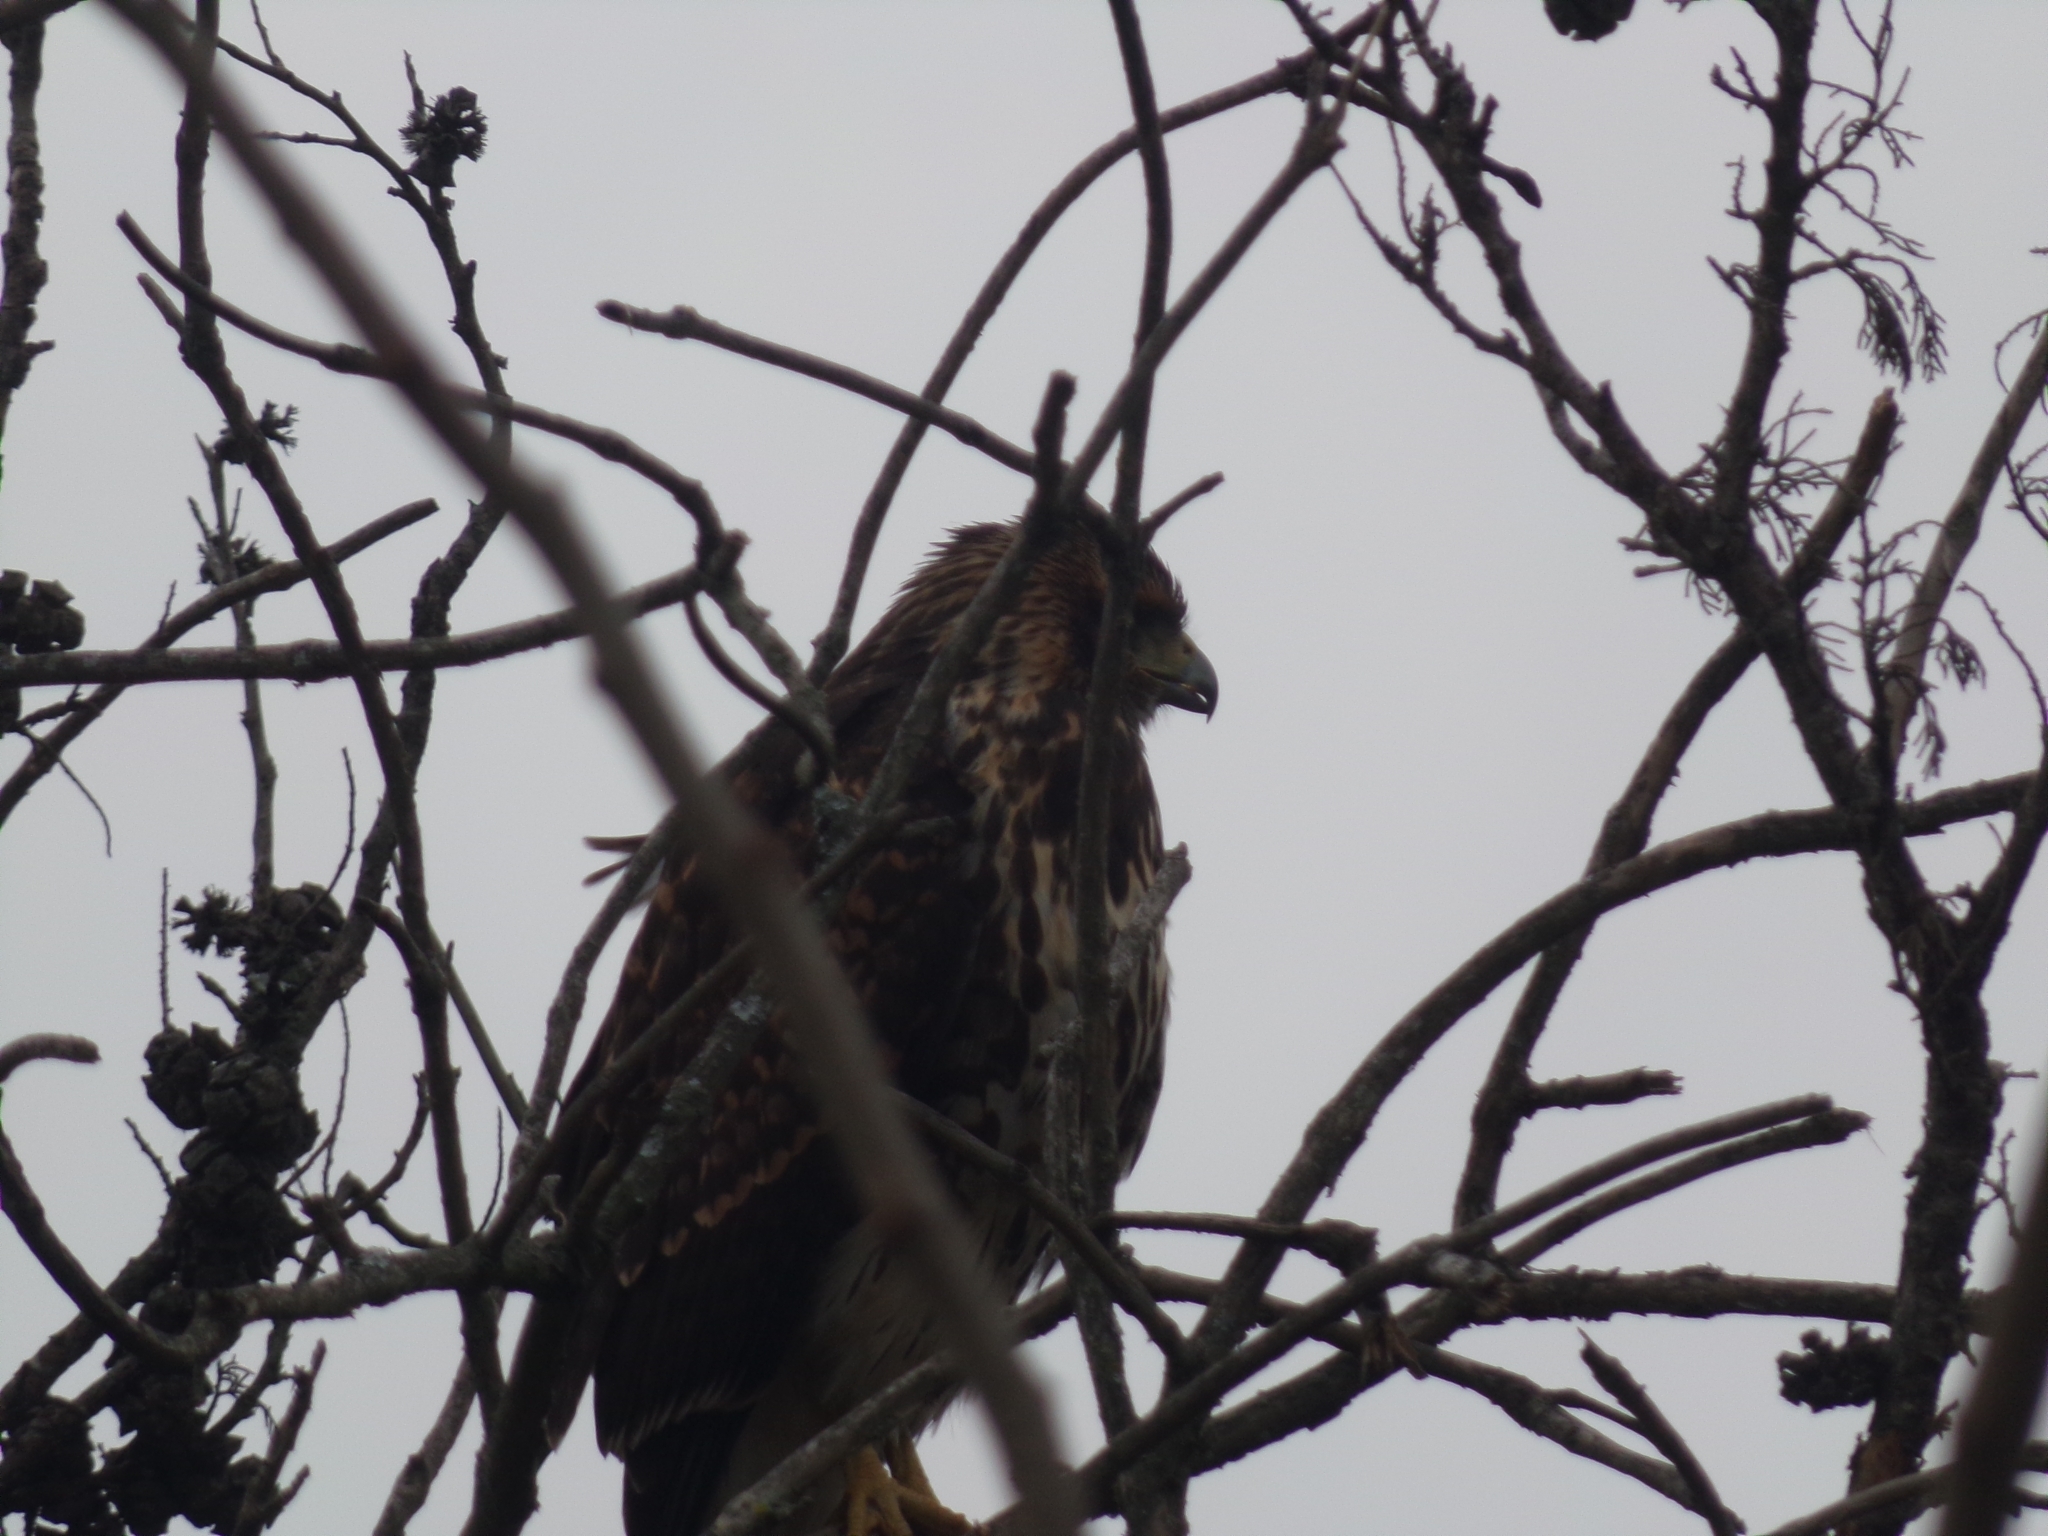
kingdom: Animalia
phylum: Chordata
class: Aves
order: Accipitriformes
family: Accipitridae
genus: Parabuteo
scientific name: Parabuteo unicinctus
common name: Harris's hawk
